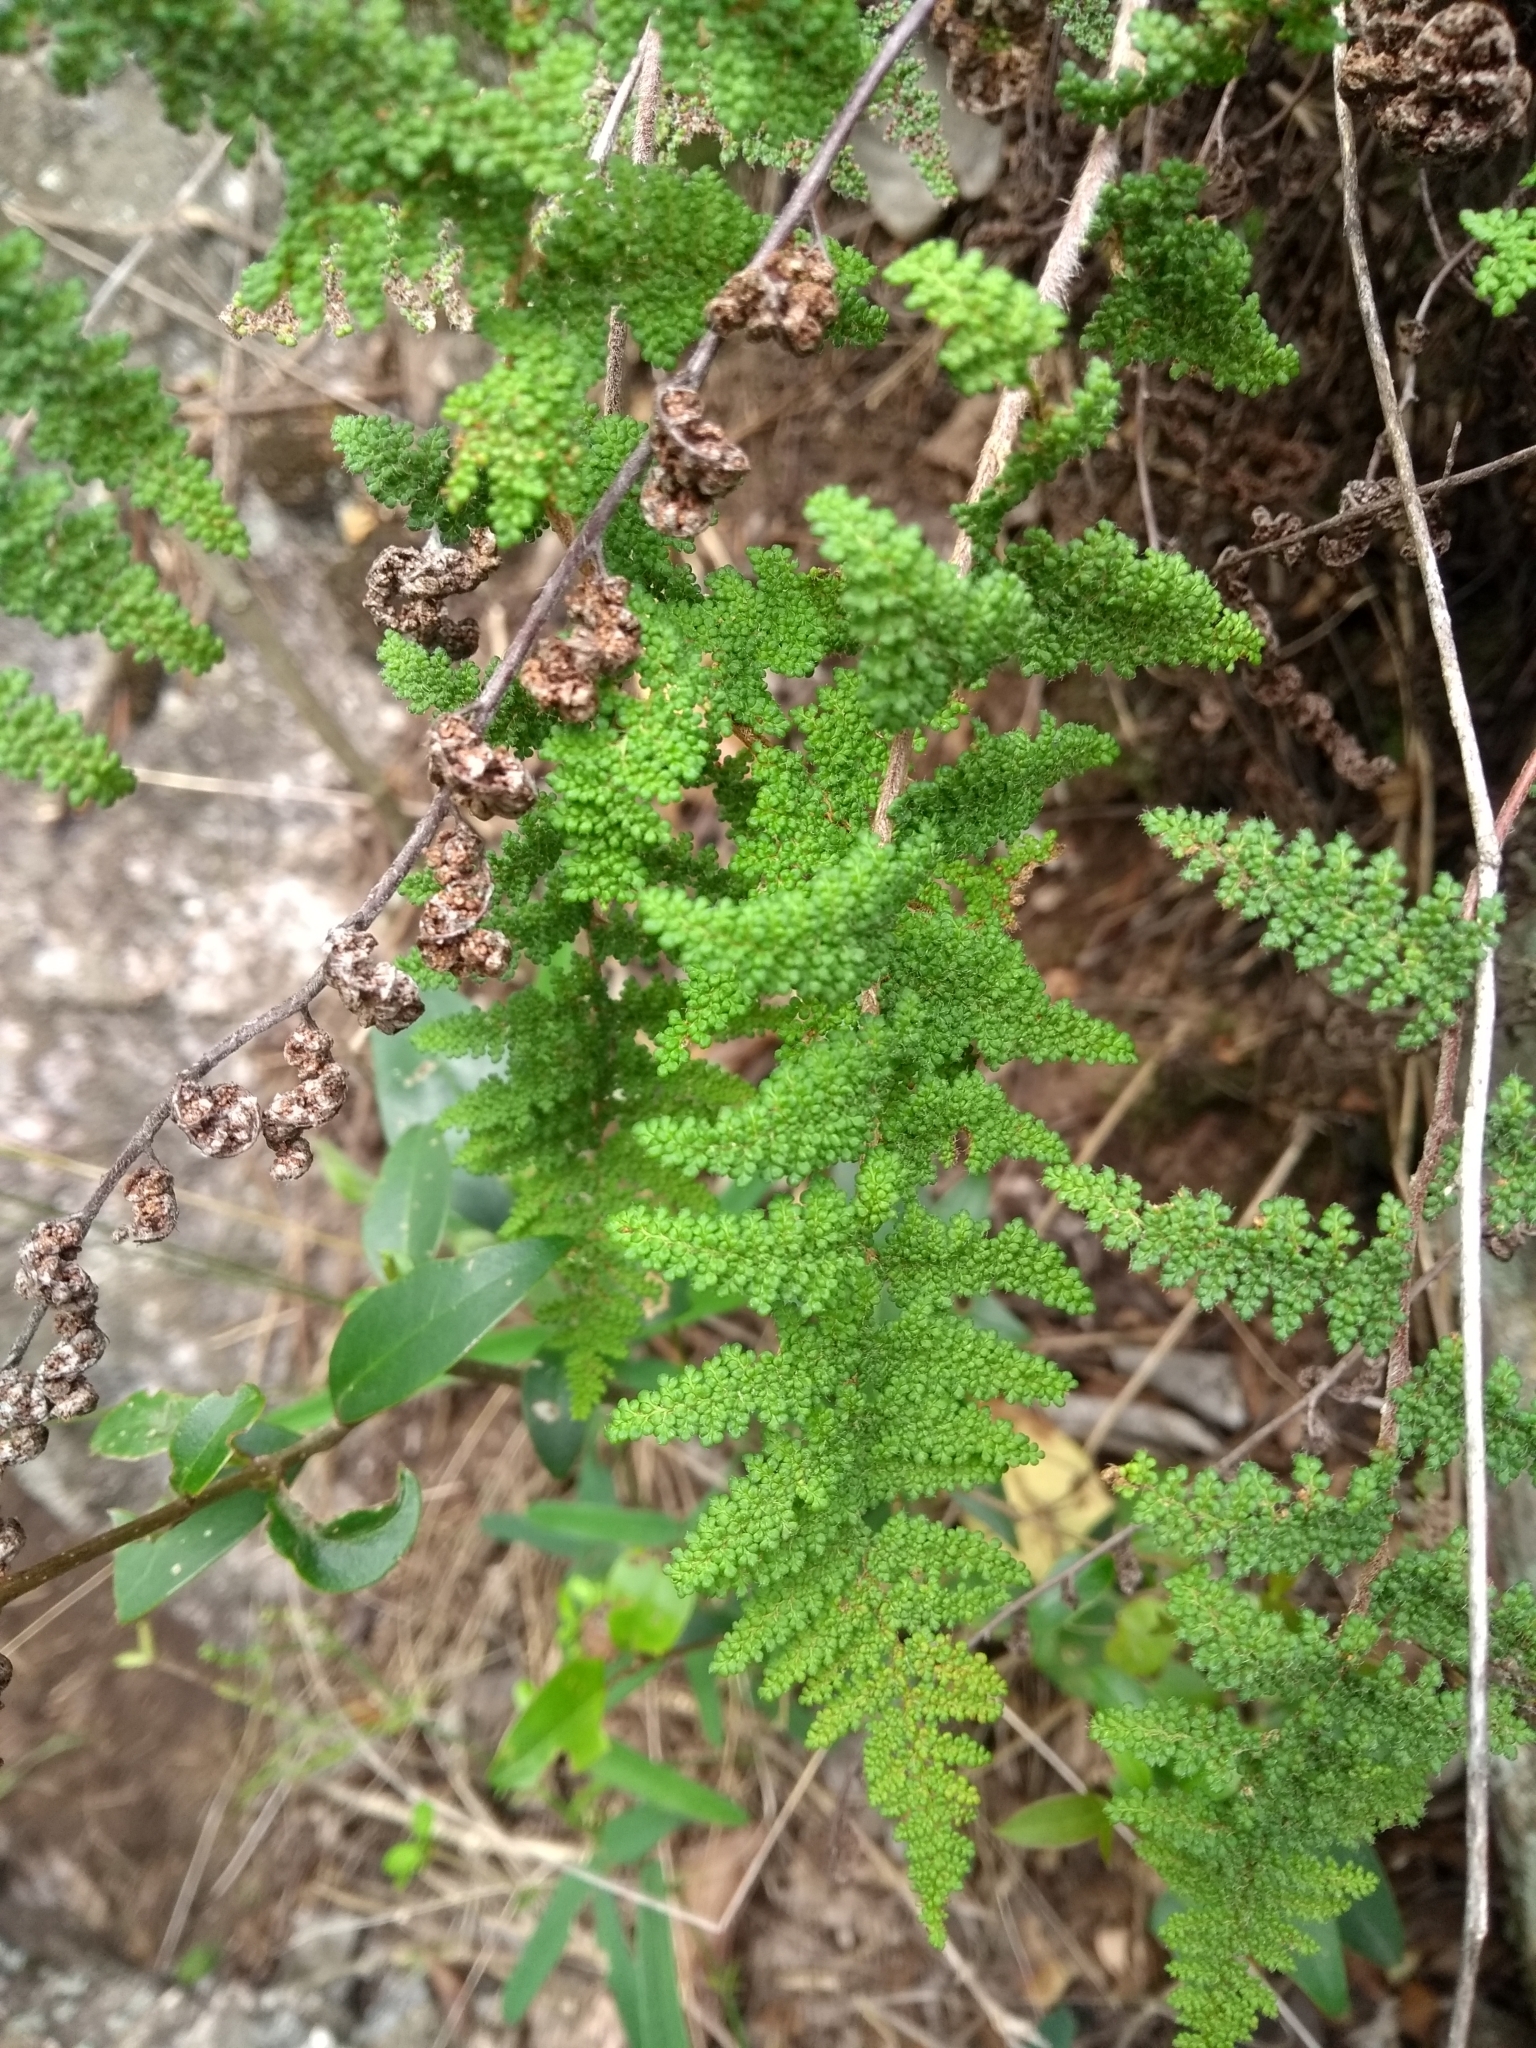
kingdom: Plantae
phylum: Tracheophyta
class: Polypodiopsida
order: Polypodiales
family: Pteridaceae
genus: Myriopteris
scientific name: Myriopteris myriophylla
